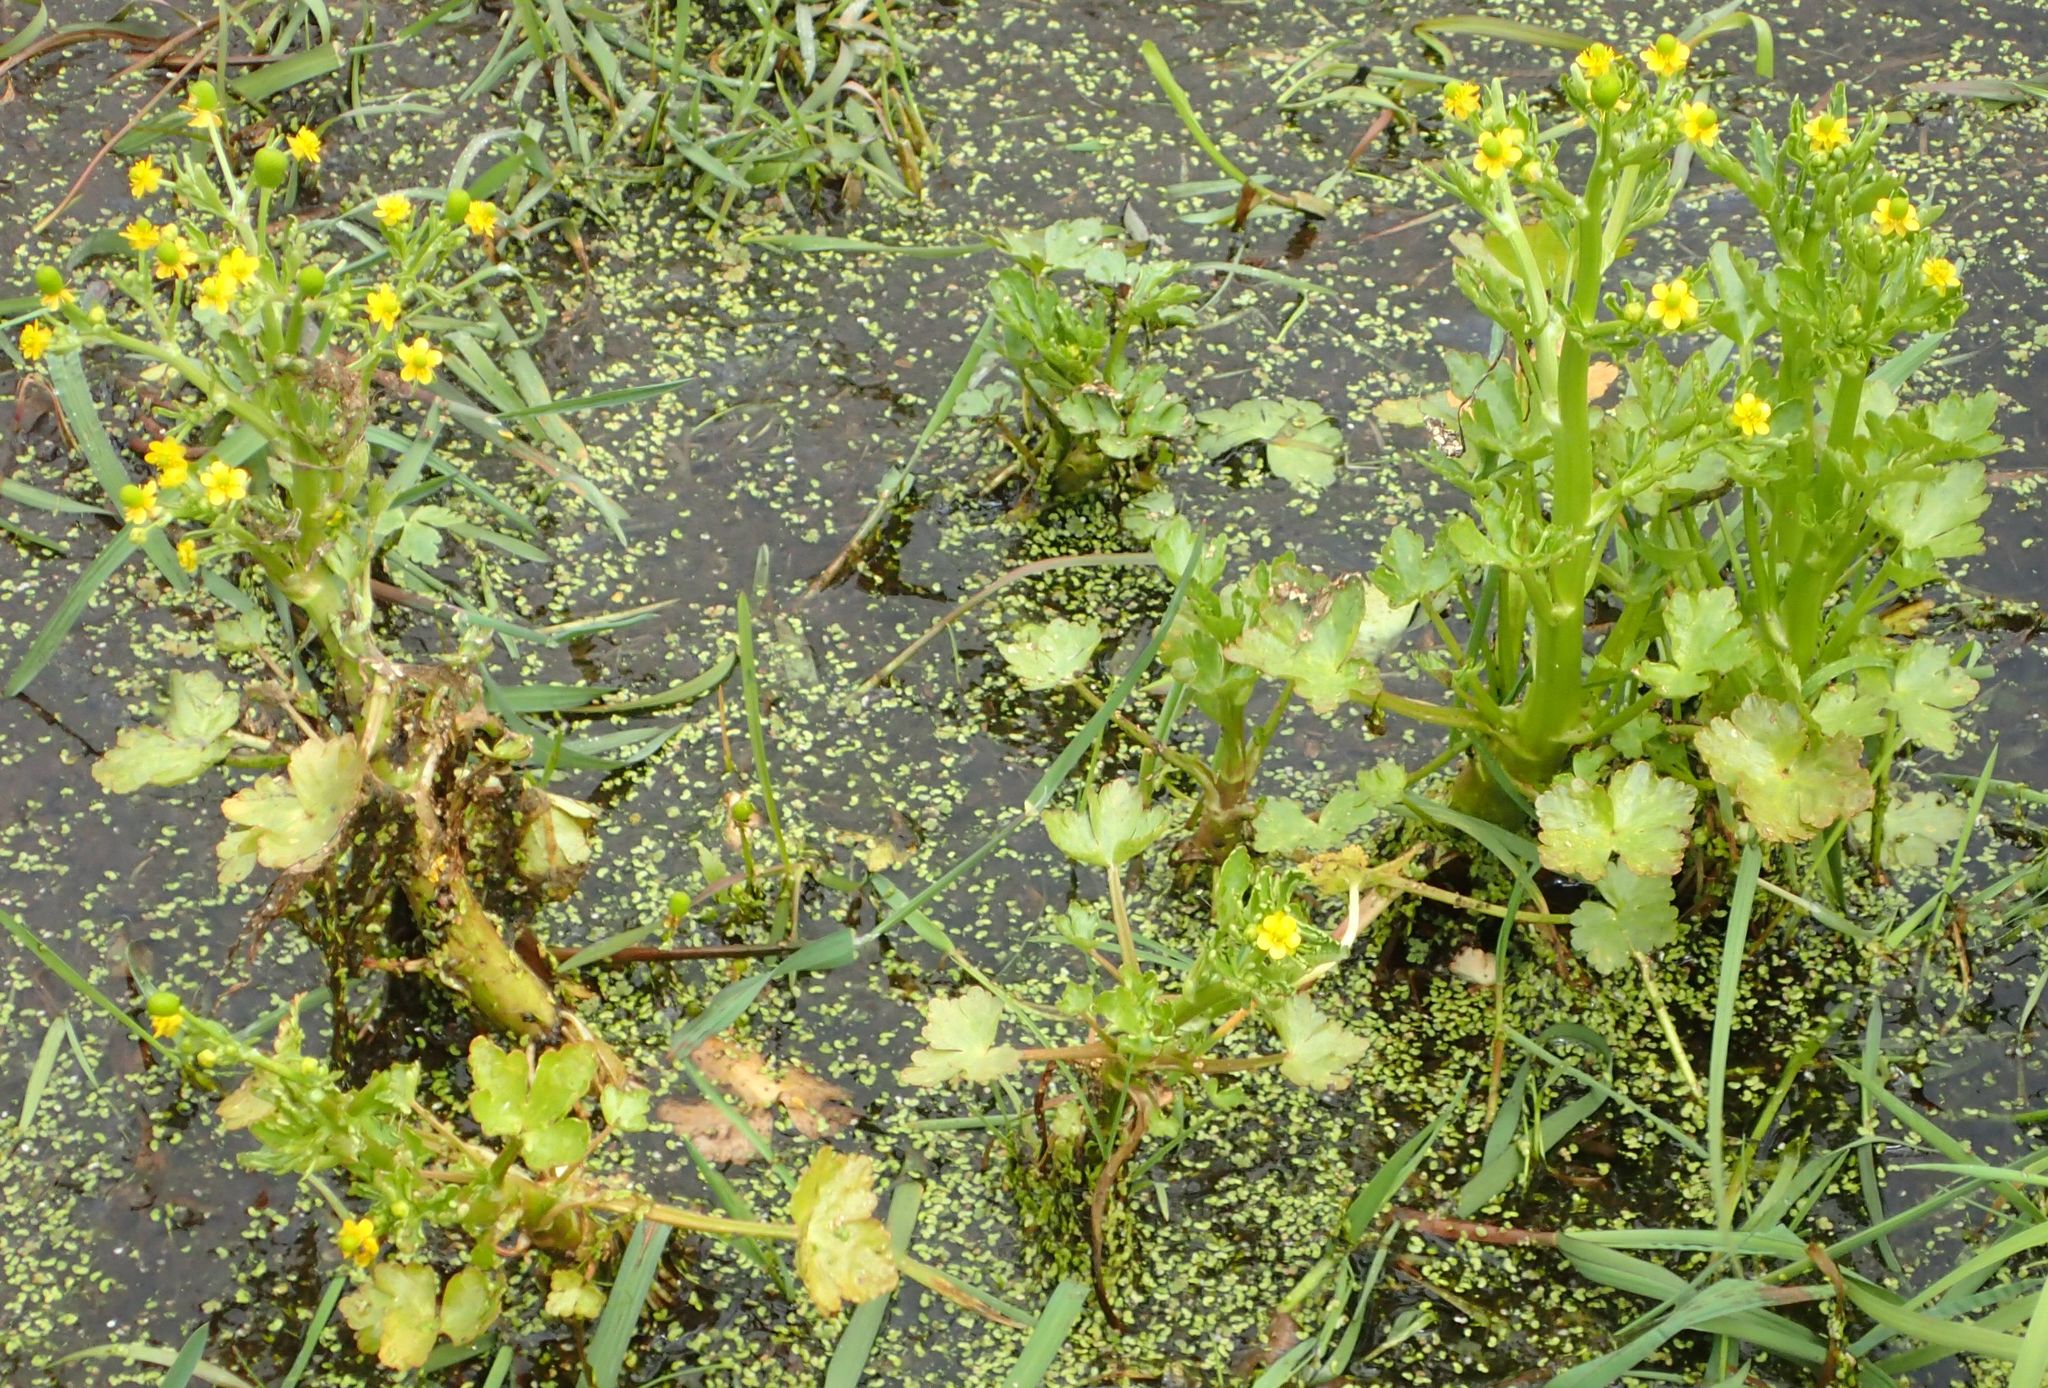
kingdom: Plantae
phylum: Tracheophyta
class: Magnoliopsida
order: Ranunculales
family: Ranunculaceae
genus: Ranunculus
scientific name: Ranunculus sceleratus
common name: Celery-leaved buttercup
